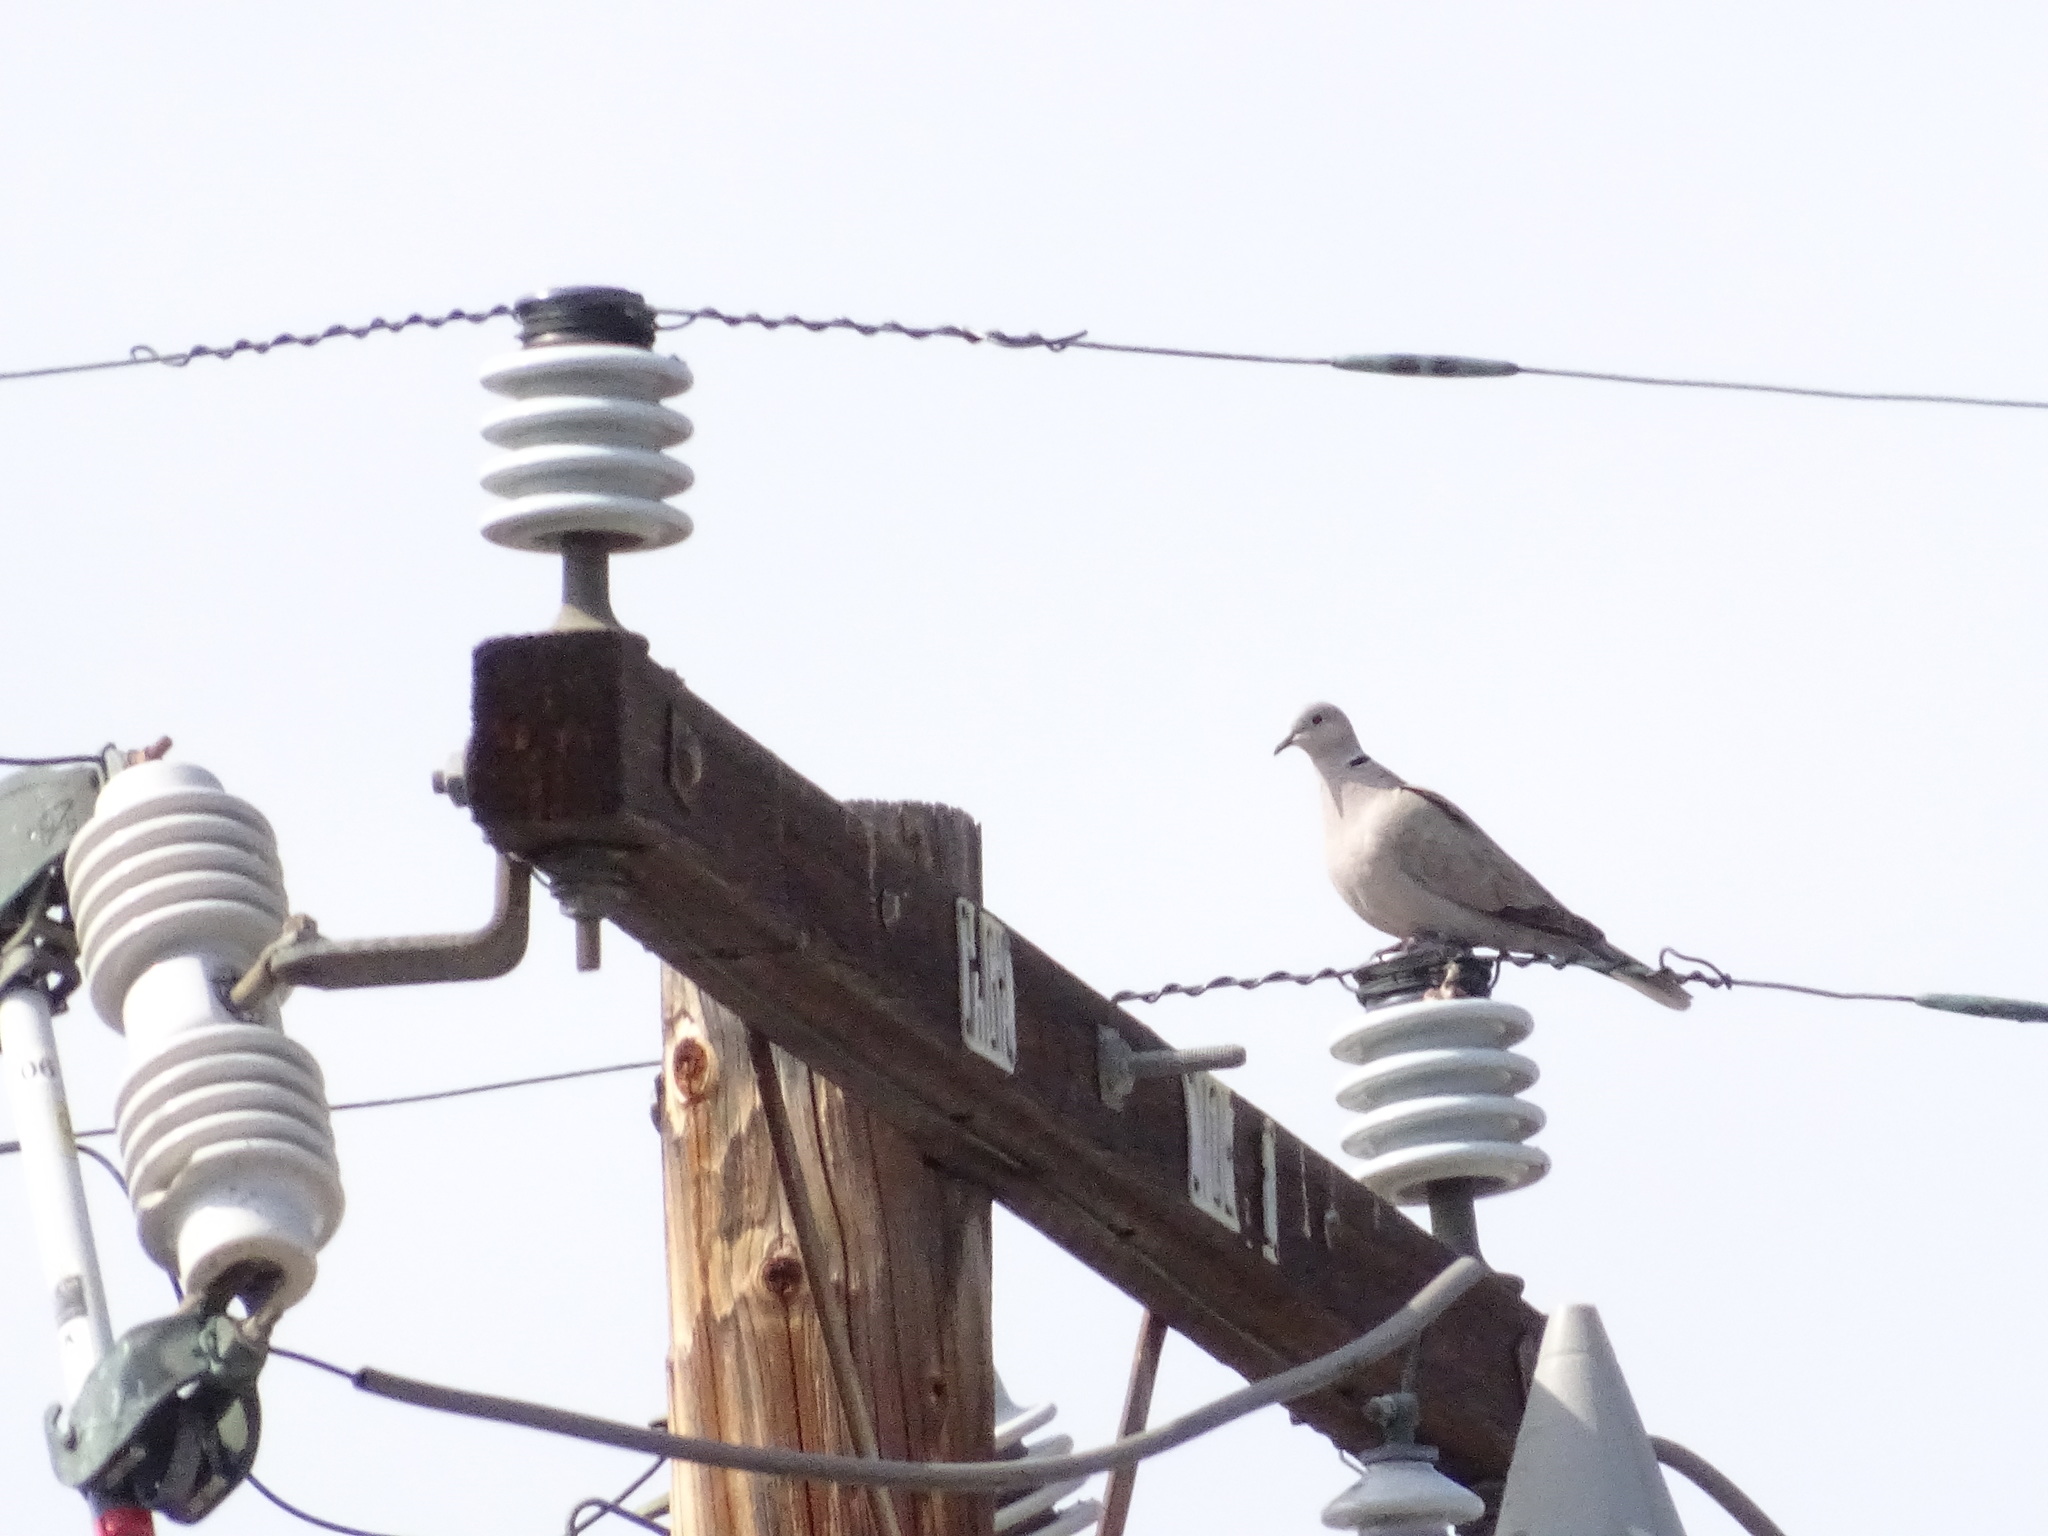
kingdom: Animalia
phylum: Chordata
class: Aves
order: Columbiformes
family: Columbidae
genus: Streptopelia
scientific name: Streptopelia decaocto
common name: Eurasian collared dove
